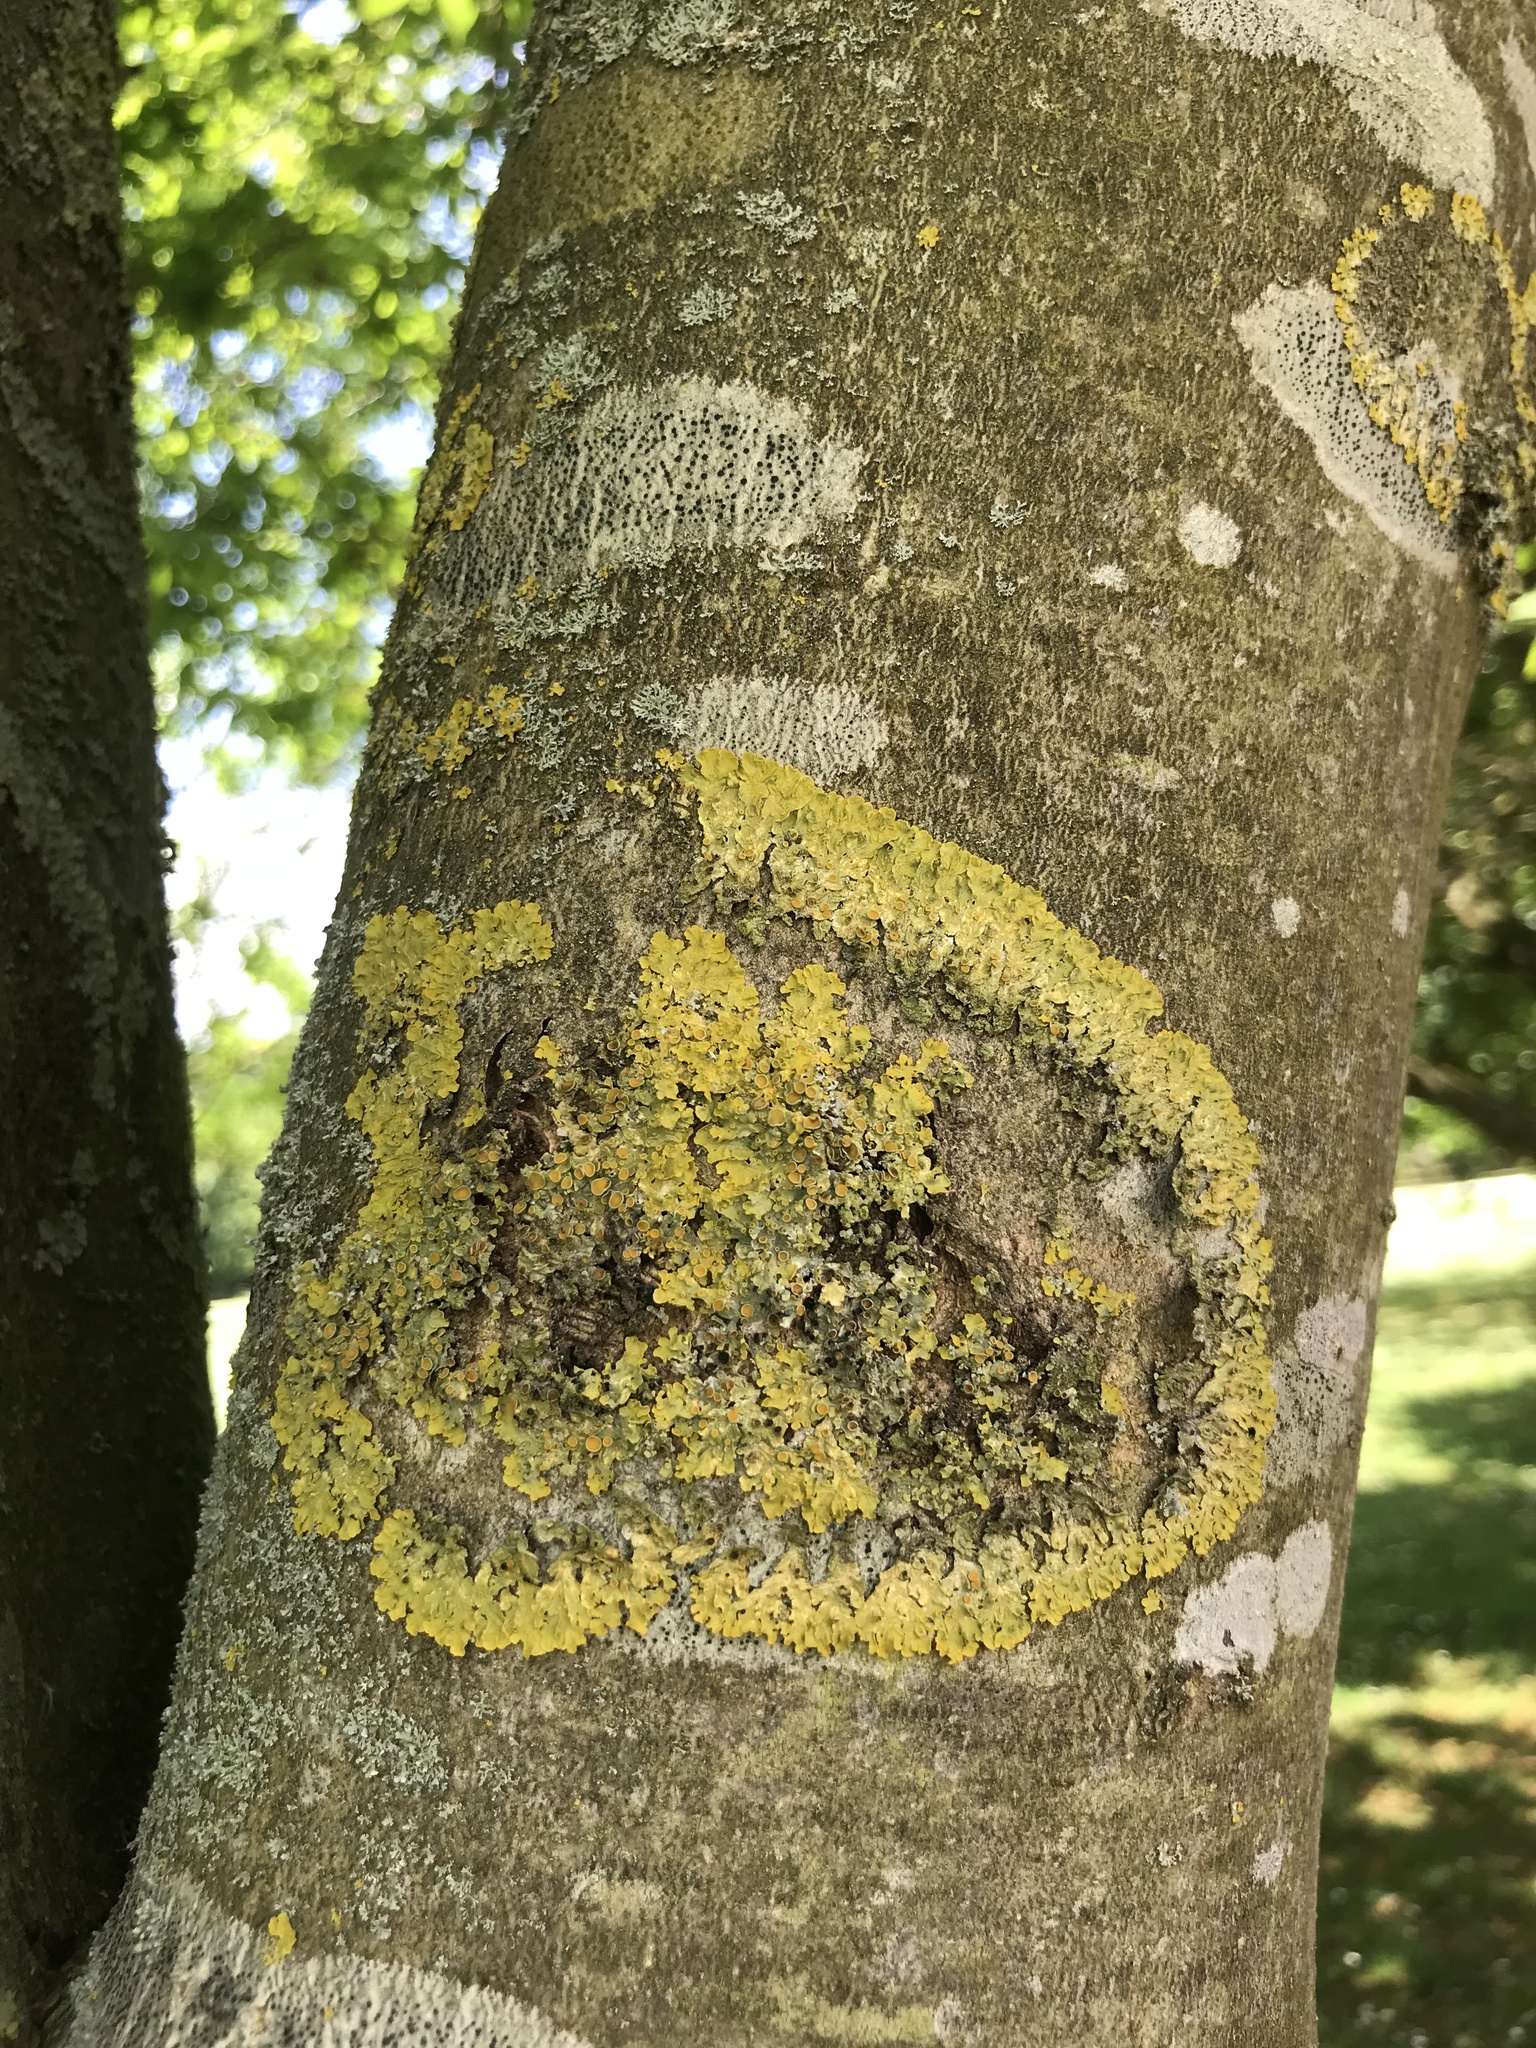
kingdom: Fungi
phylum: Ascomycota
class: Lecanoromycetes
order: Teloschistales
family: Teloschistaceae
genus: Xanthoria
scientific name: Xanthoria parietina
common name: Common orange lichen
